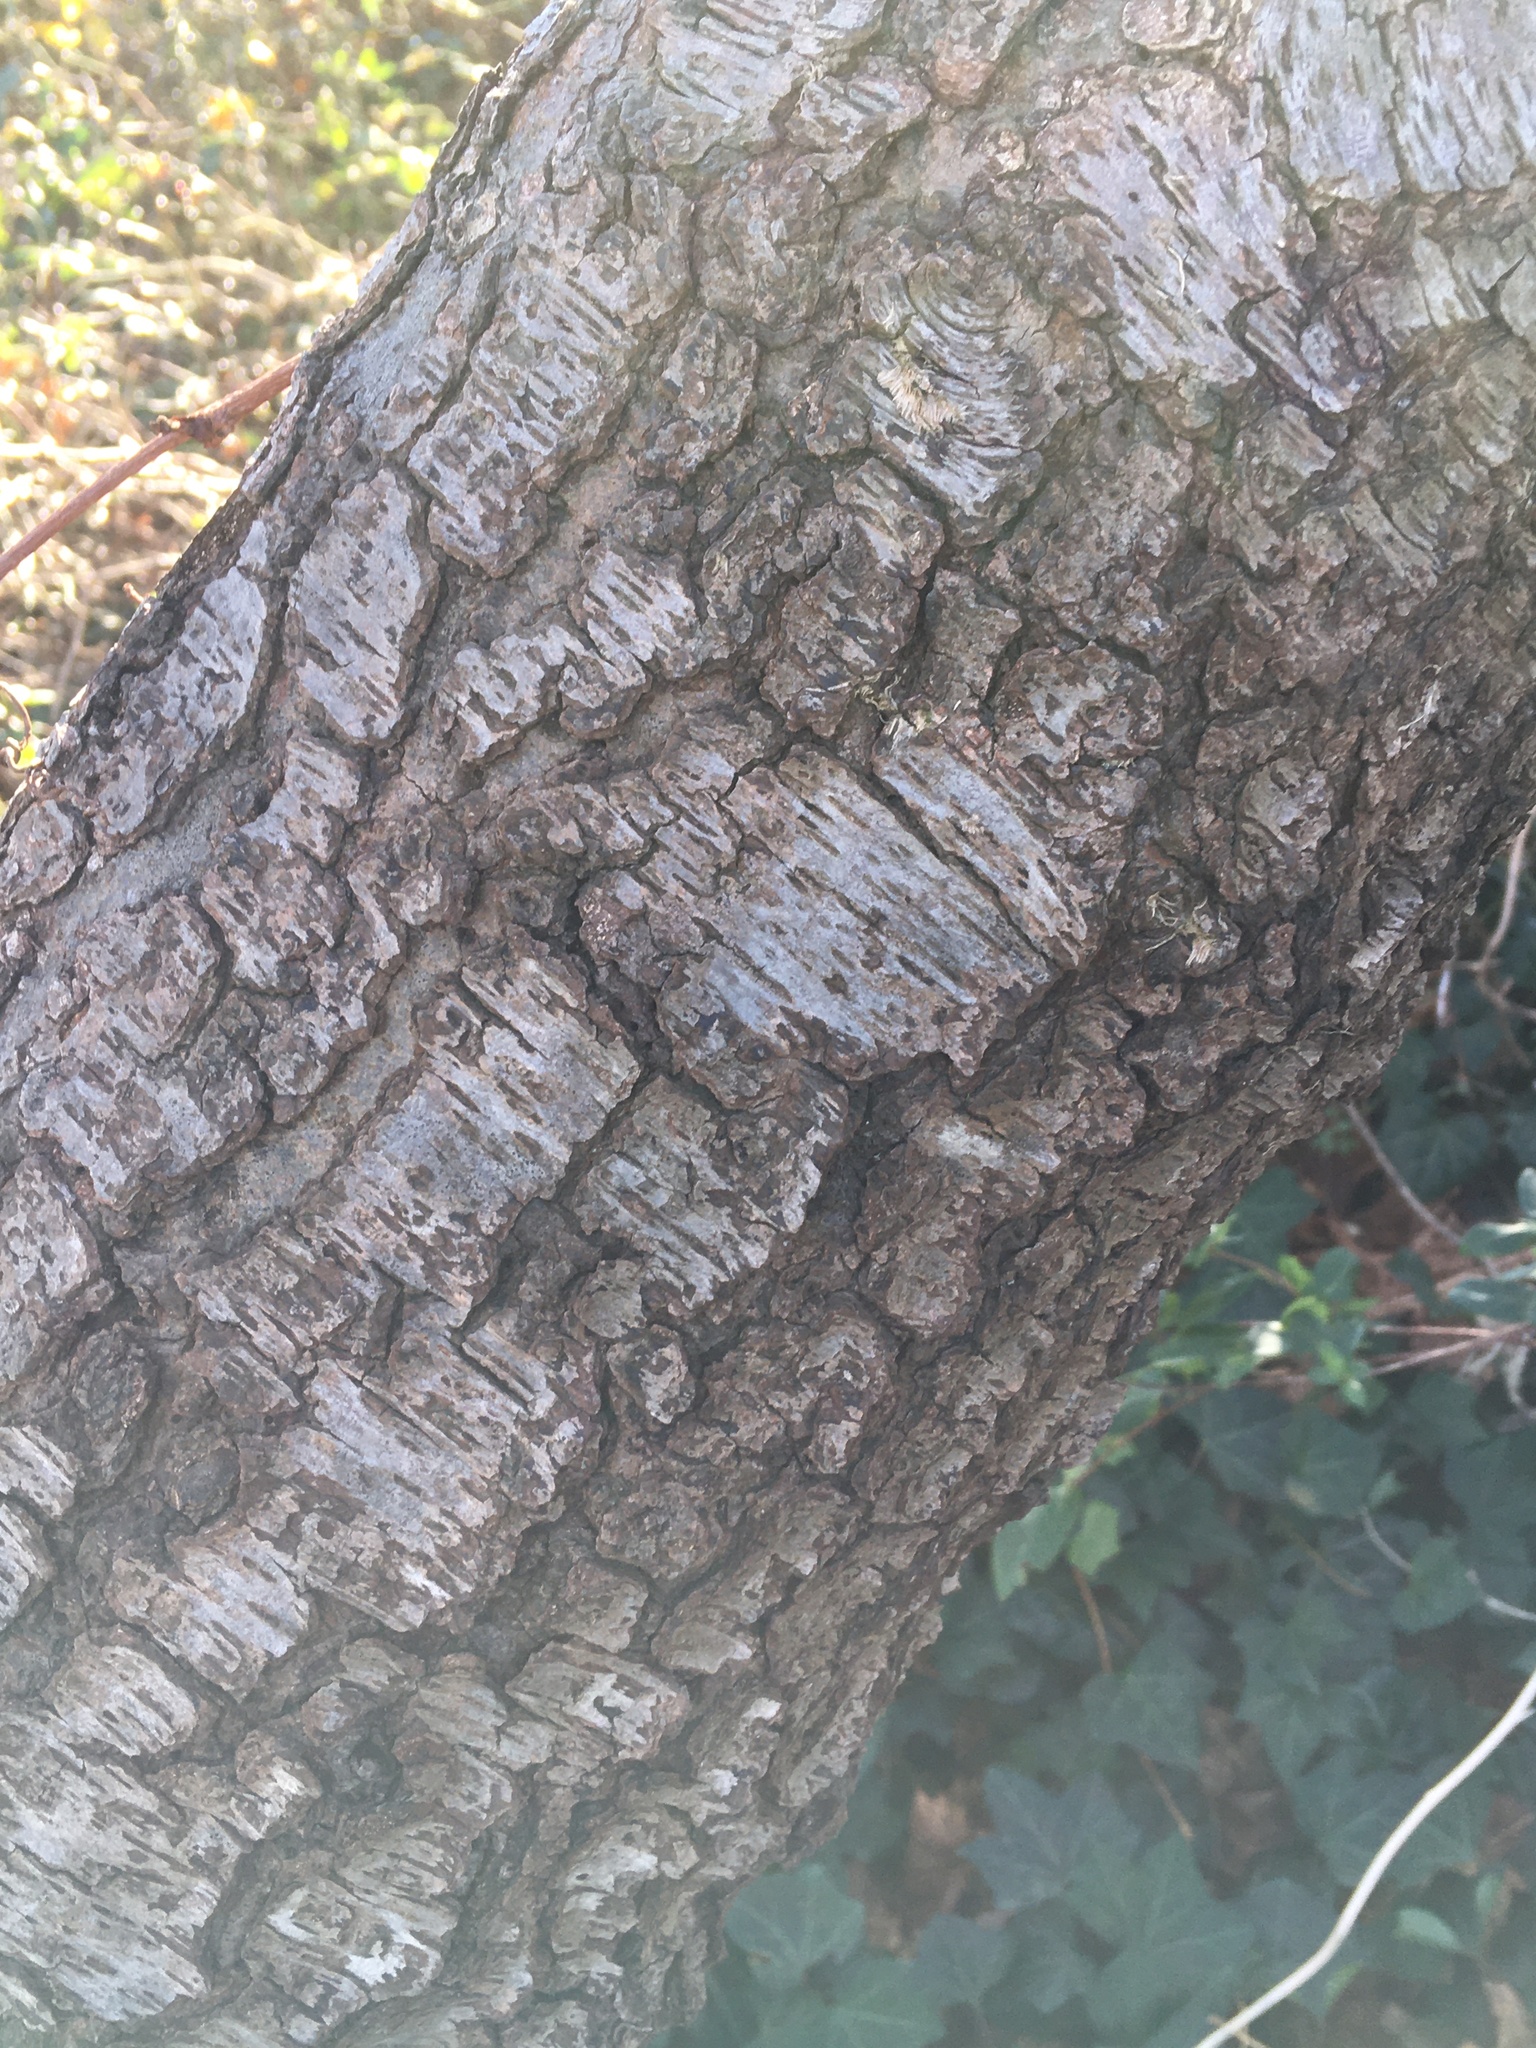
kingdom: Plantae
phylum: Tracheophyta
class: Magnoliopsida
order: Rosales
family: Rosaceae
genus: Prunus
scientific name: Prunus serotina
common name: Black cherry
